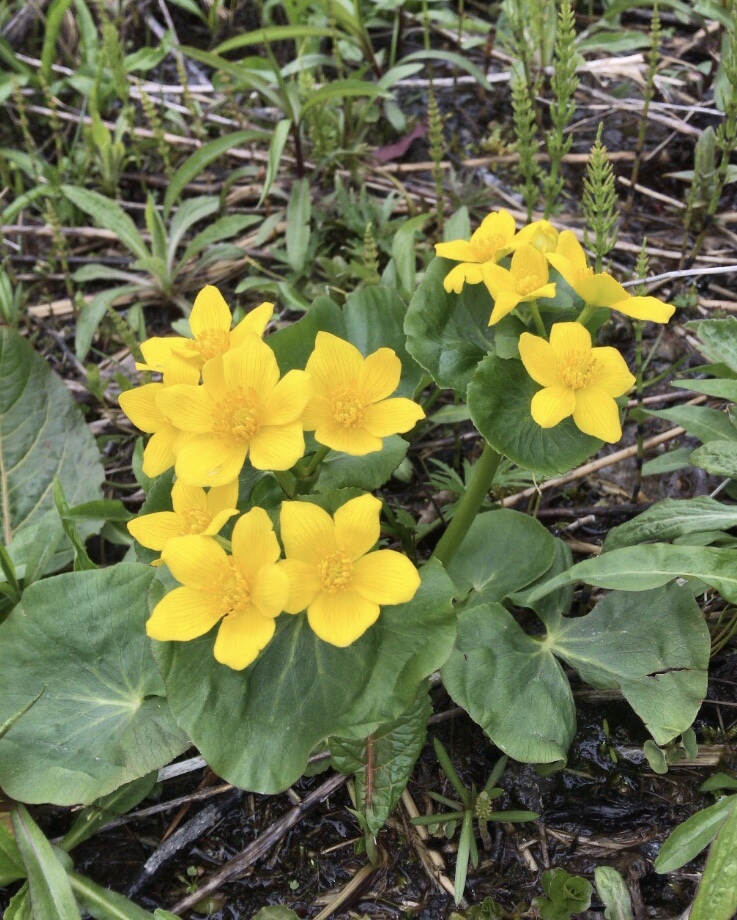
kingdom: Plantae
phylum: Tracheophyta
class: Magnoliopsida
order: Ranunculales
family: Ranunculaceae
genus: Caltha
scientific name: Caltha palustris
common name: Marsh marigold
